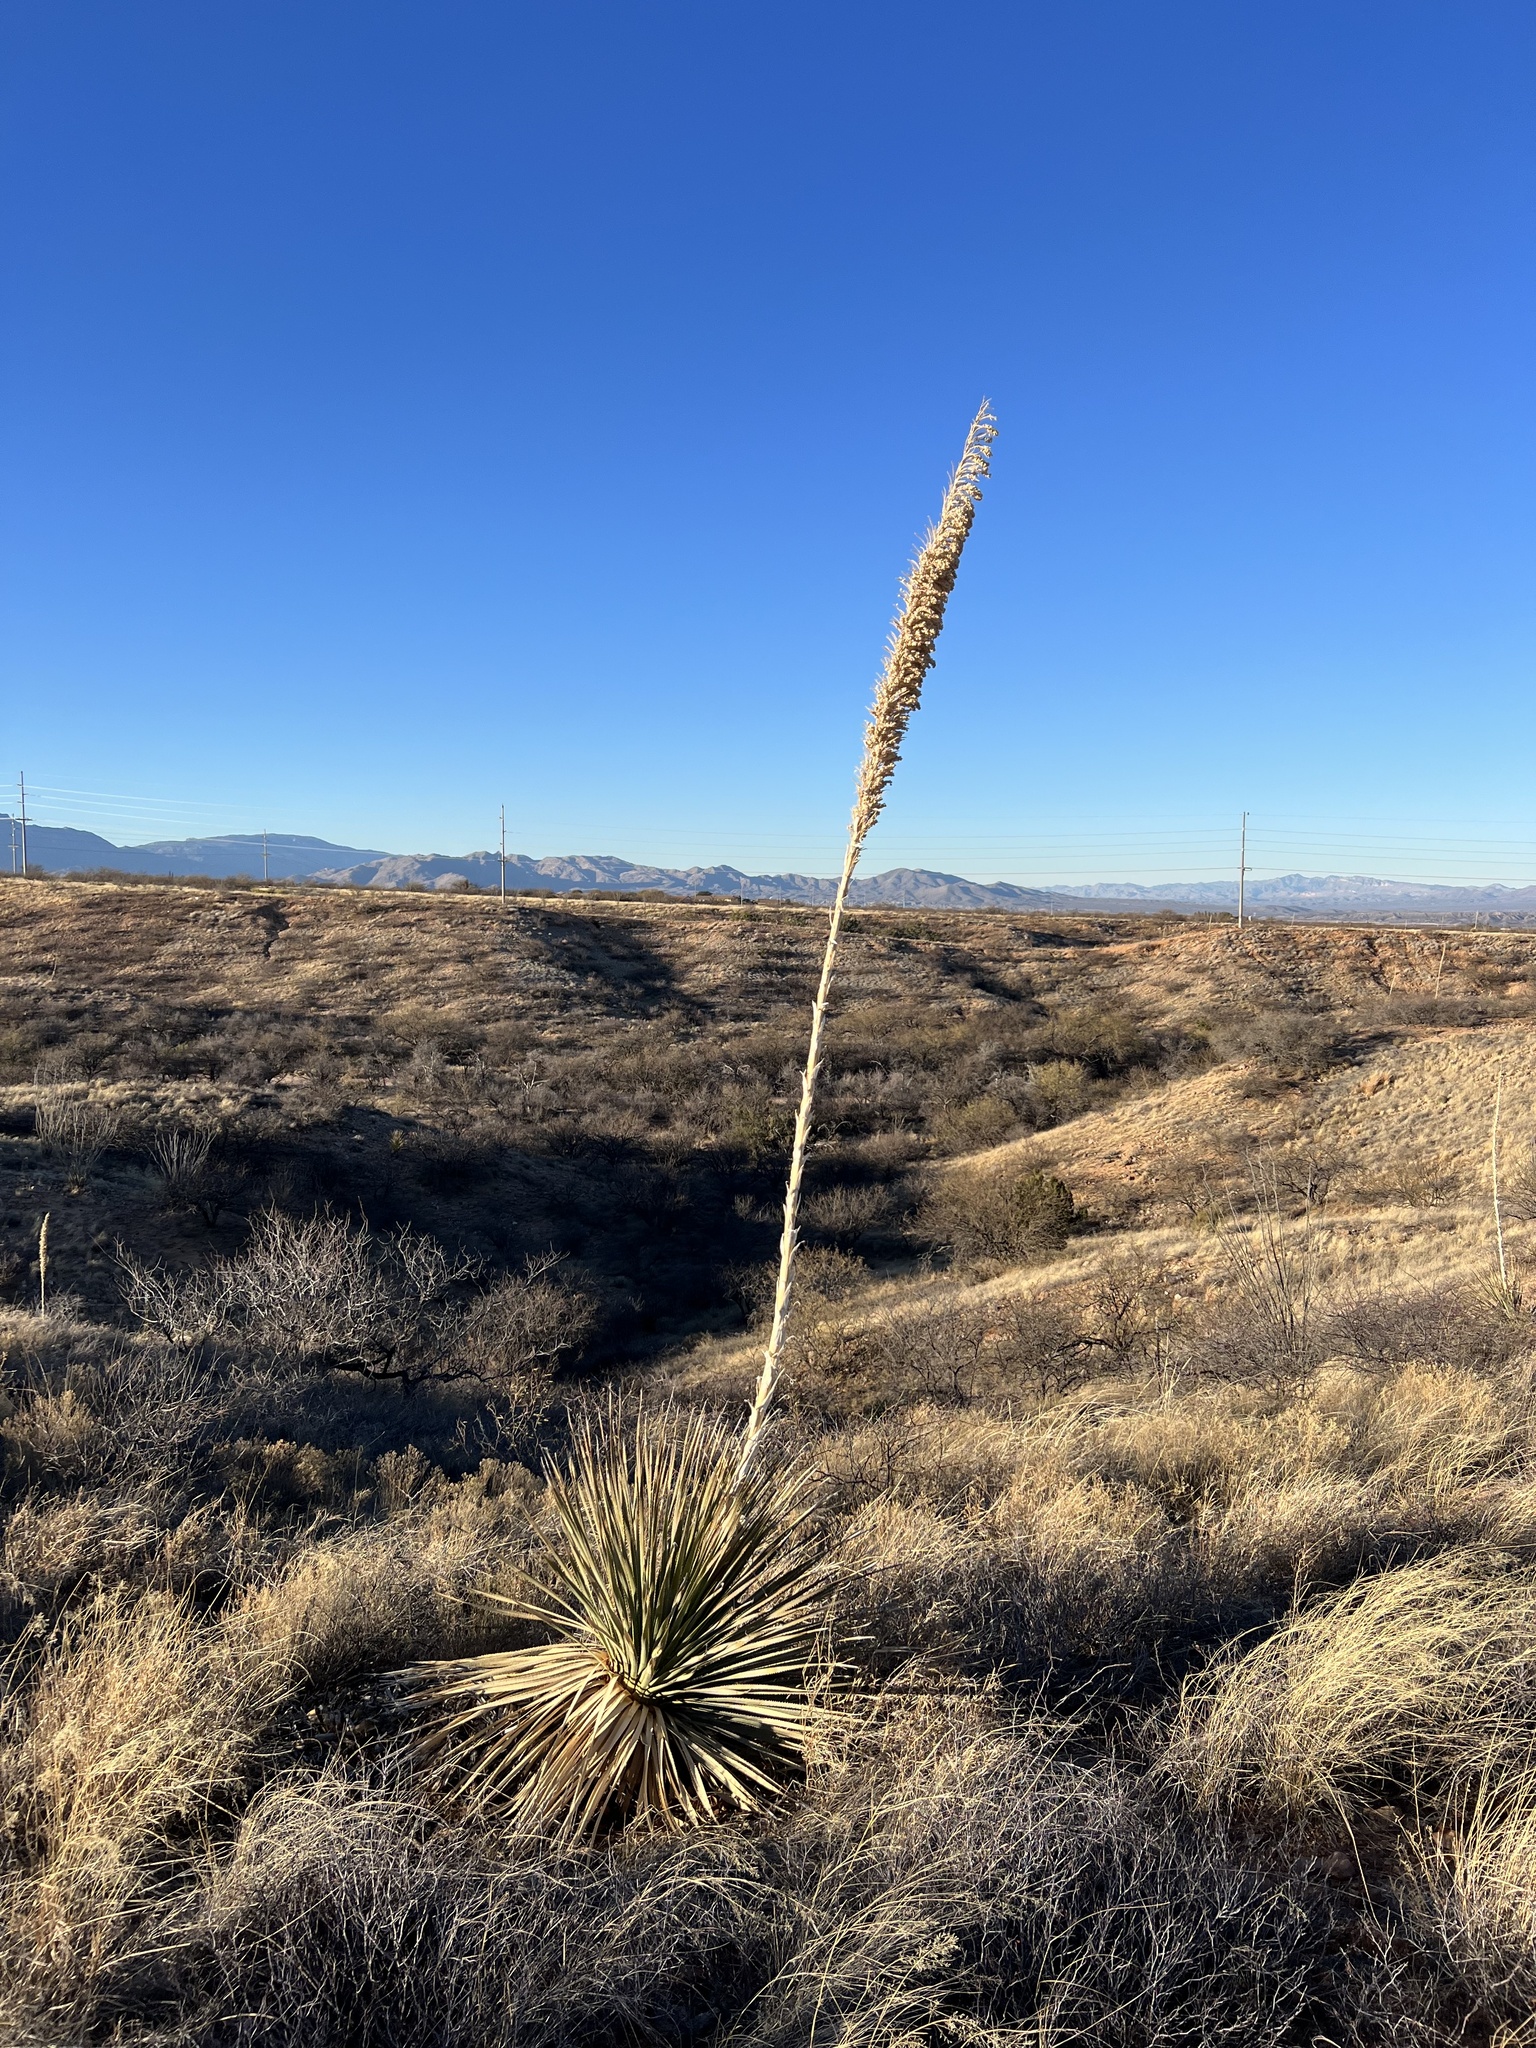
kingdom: Plantae
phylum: Tracheophyta
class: Liliopsida
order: Asparagales
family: Asparagaceae
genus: Dasylirion
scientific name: Dasylirion wheeleri
